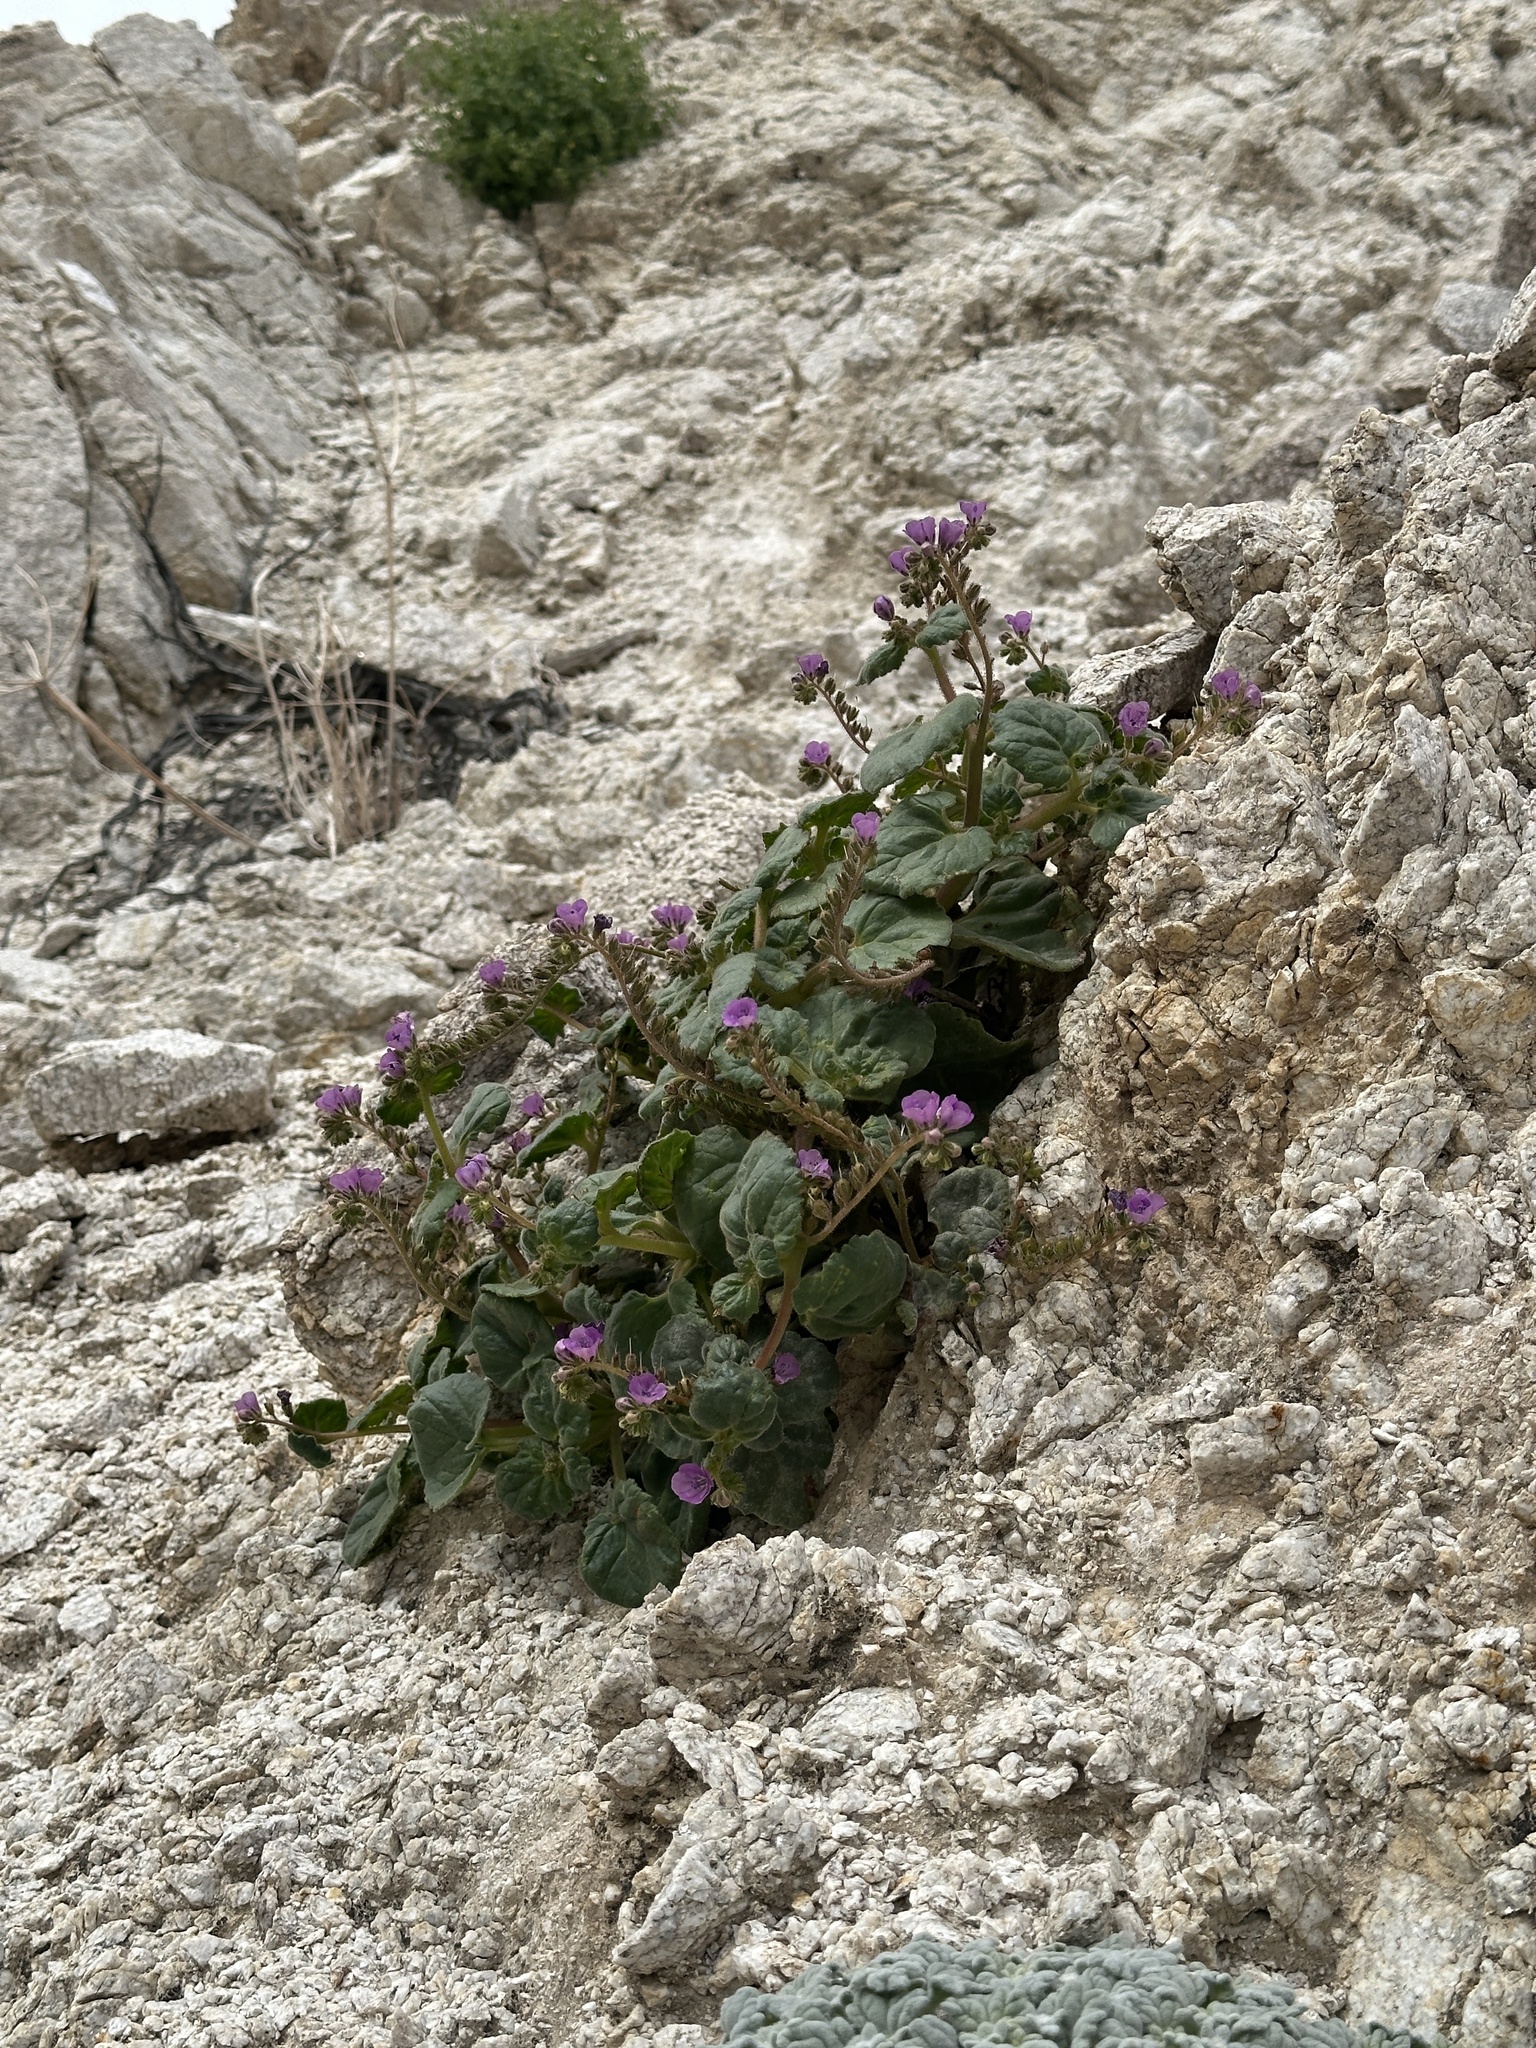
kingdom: Plantae
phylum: Tracheophyta
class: Magnoliopsida
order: Boraginales
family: Hydrophyllaceae
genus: Phacelia
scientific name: Phacelia calthifolia
